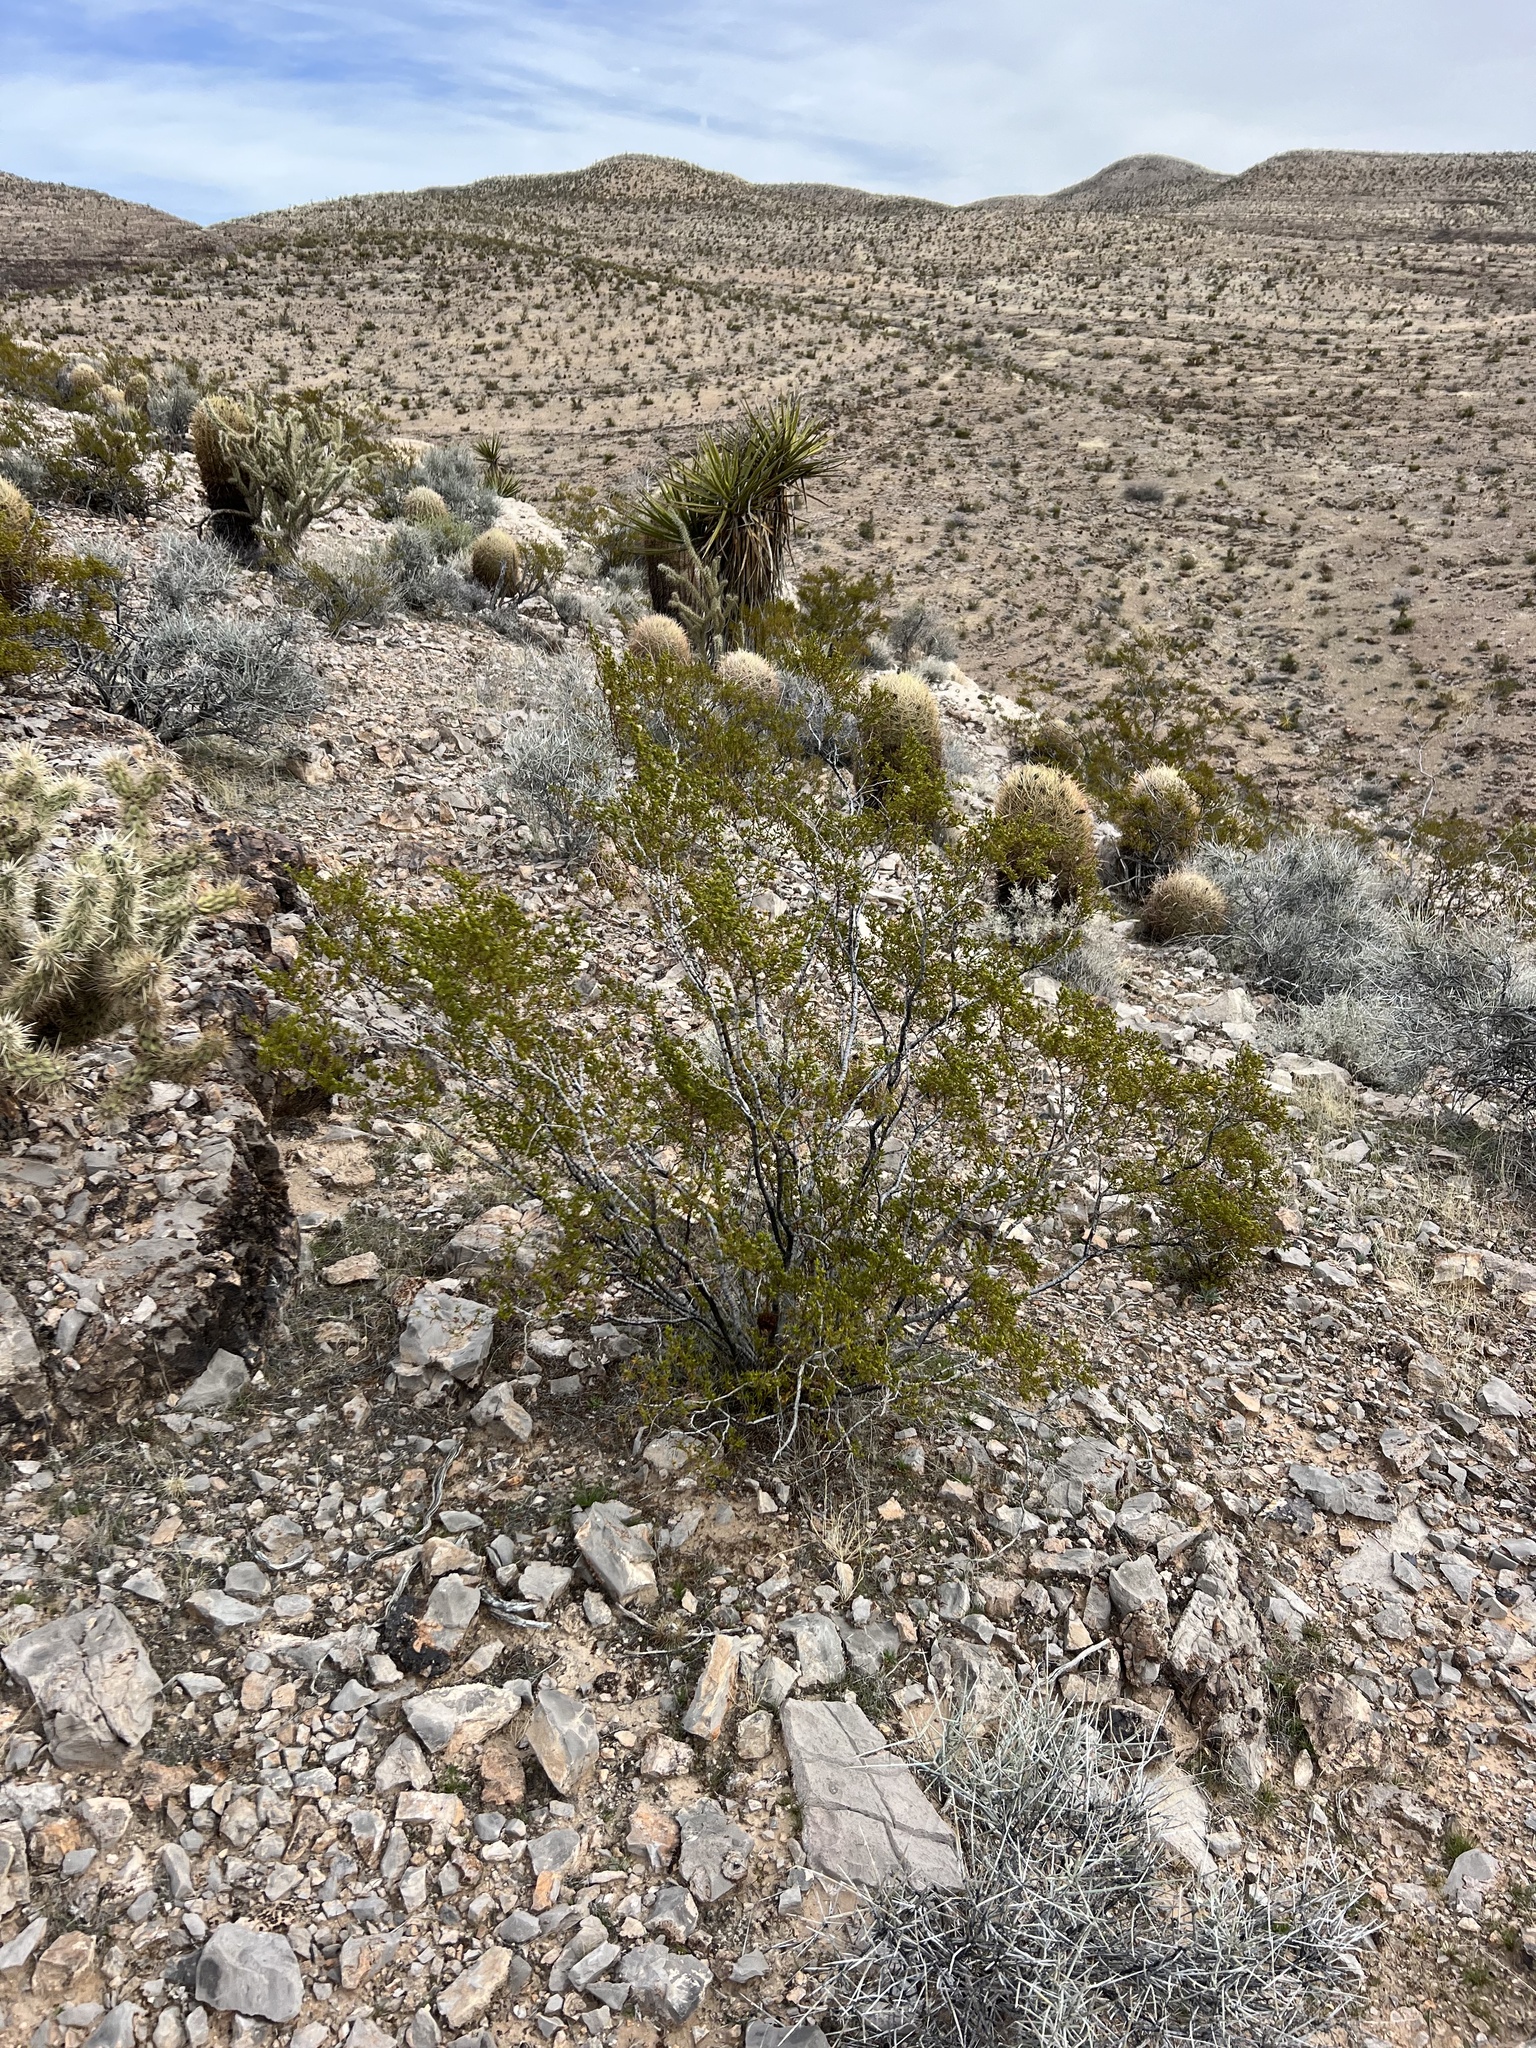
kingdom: Plantae
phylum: Tracheophyta
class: Magnoliopsida
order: Zygophyllales
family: Zygophyllaceae
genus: Larrea
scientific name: Larrea tridentata
